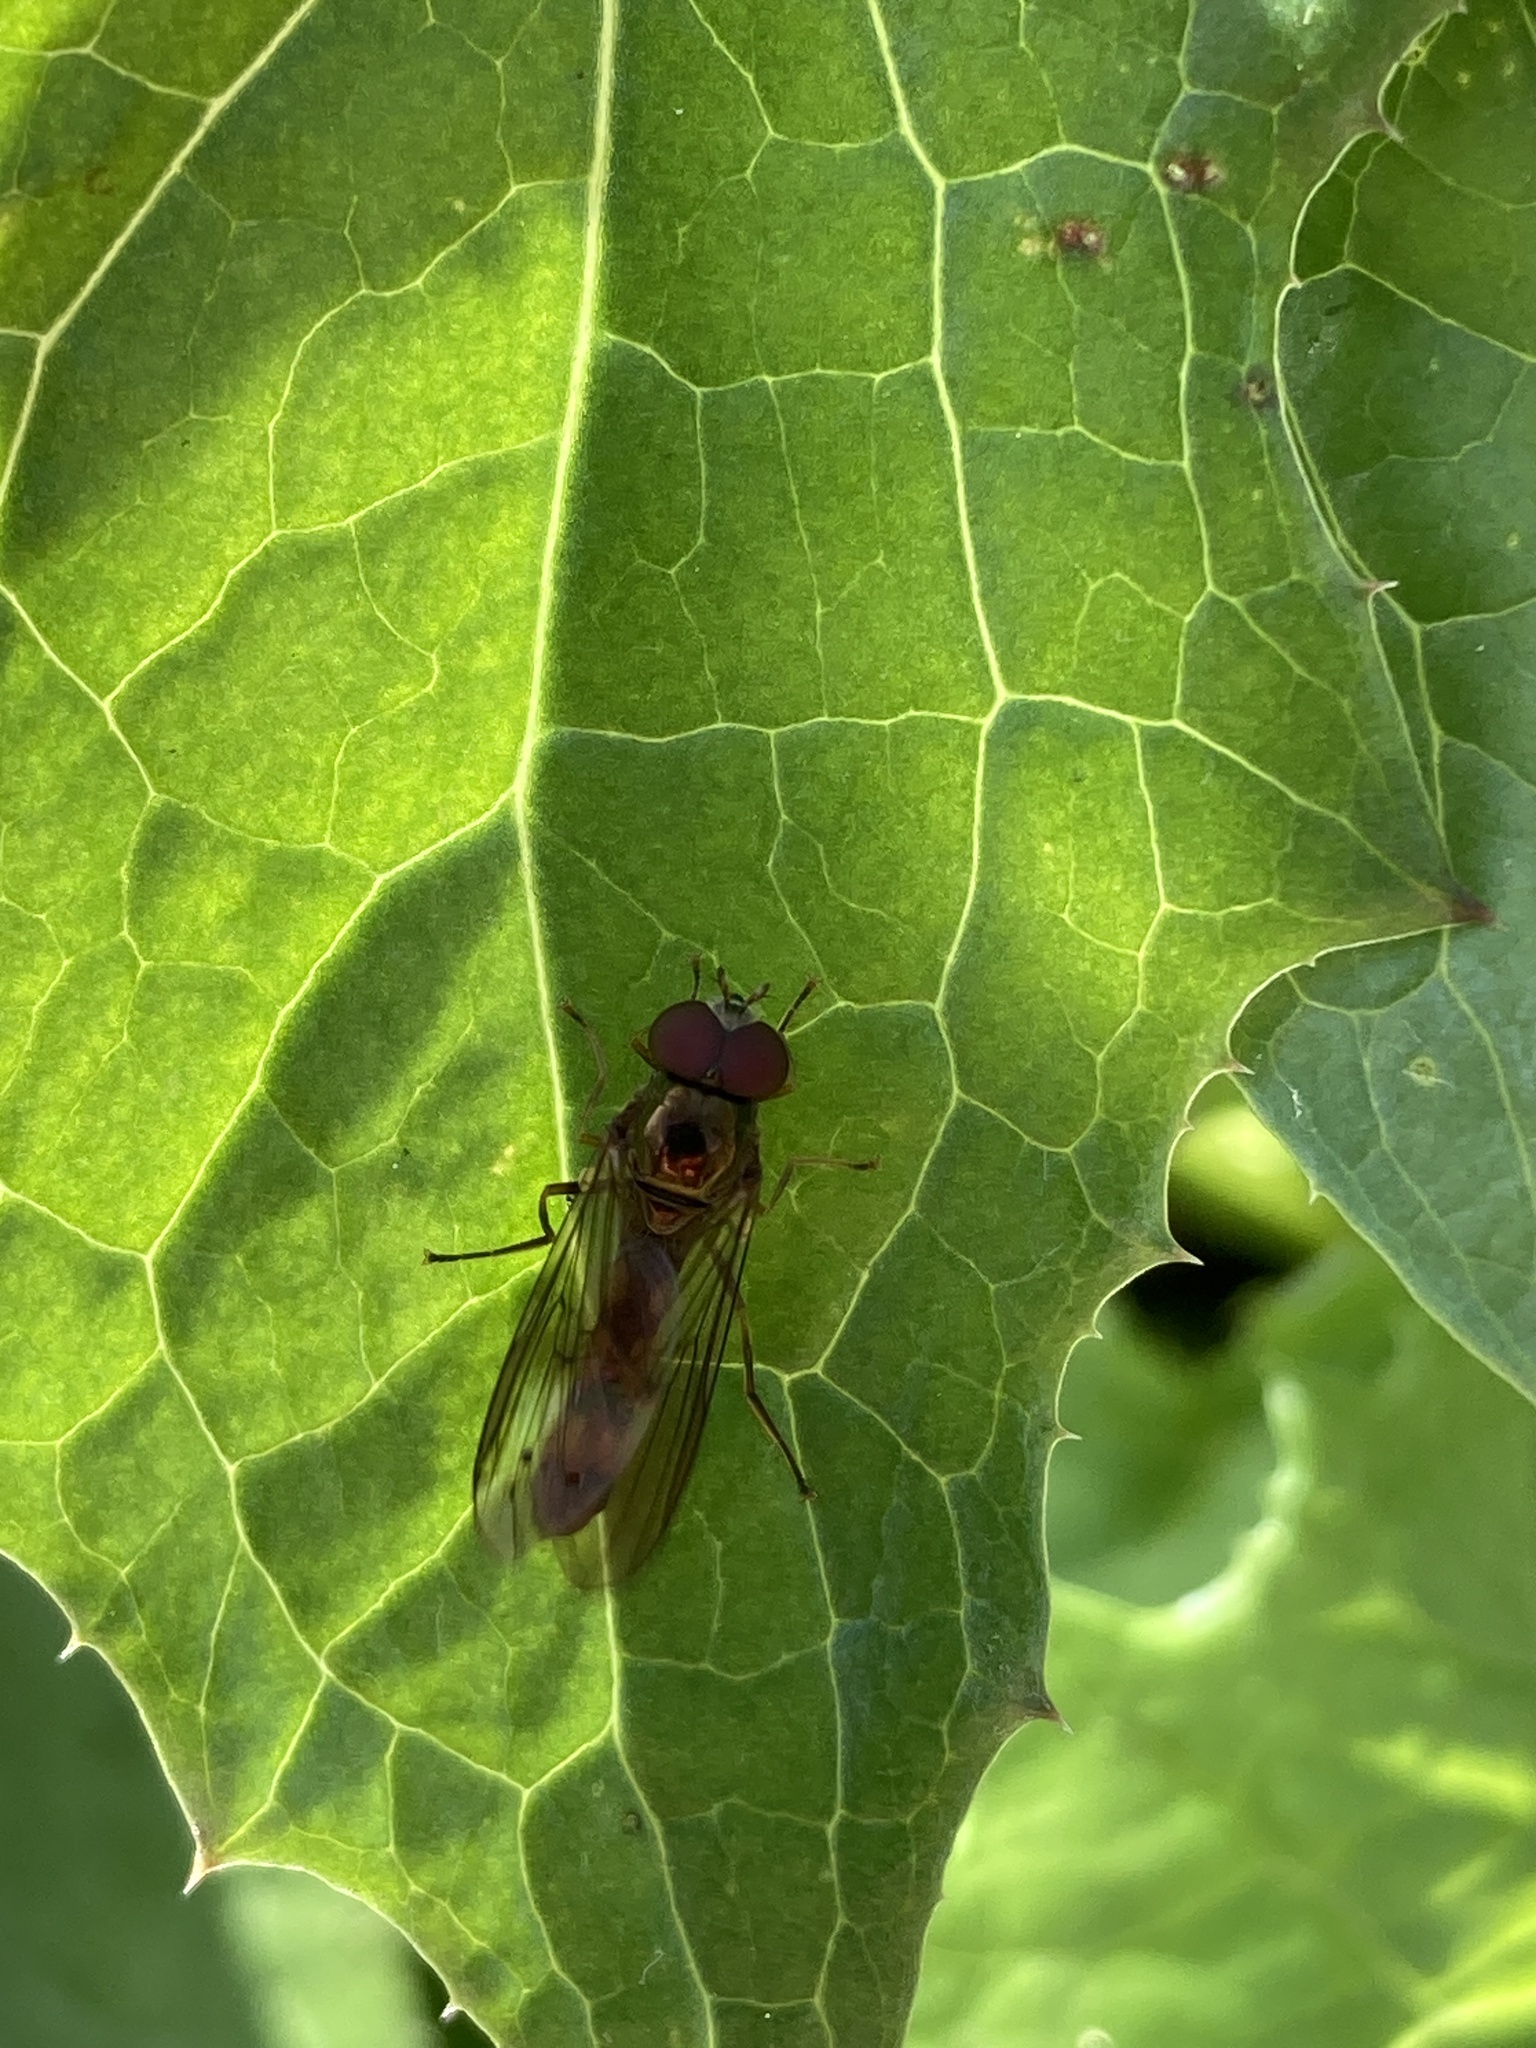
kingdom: Animalia
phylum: Arthropoda
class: Insecta
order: Diptera
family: Syrphidae
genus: Melanostoma
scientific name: Melanostoma scalare
